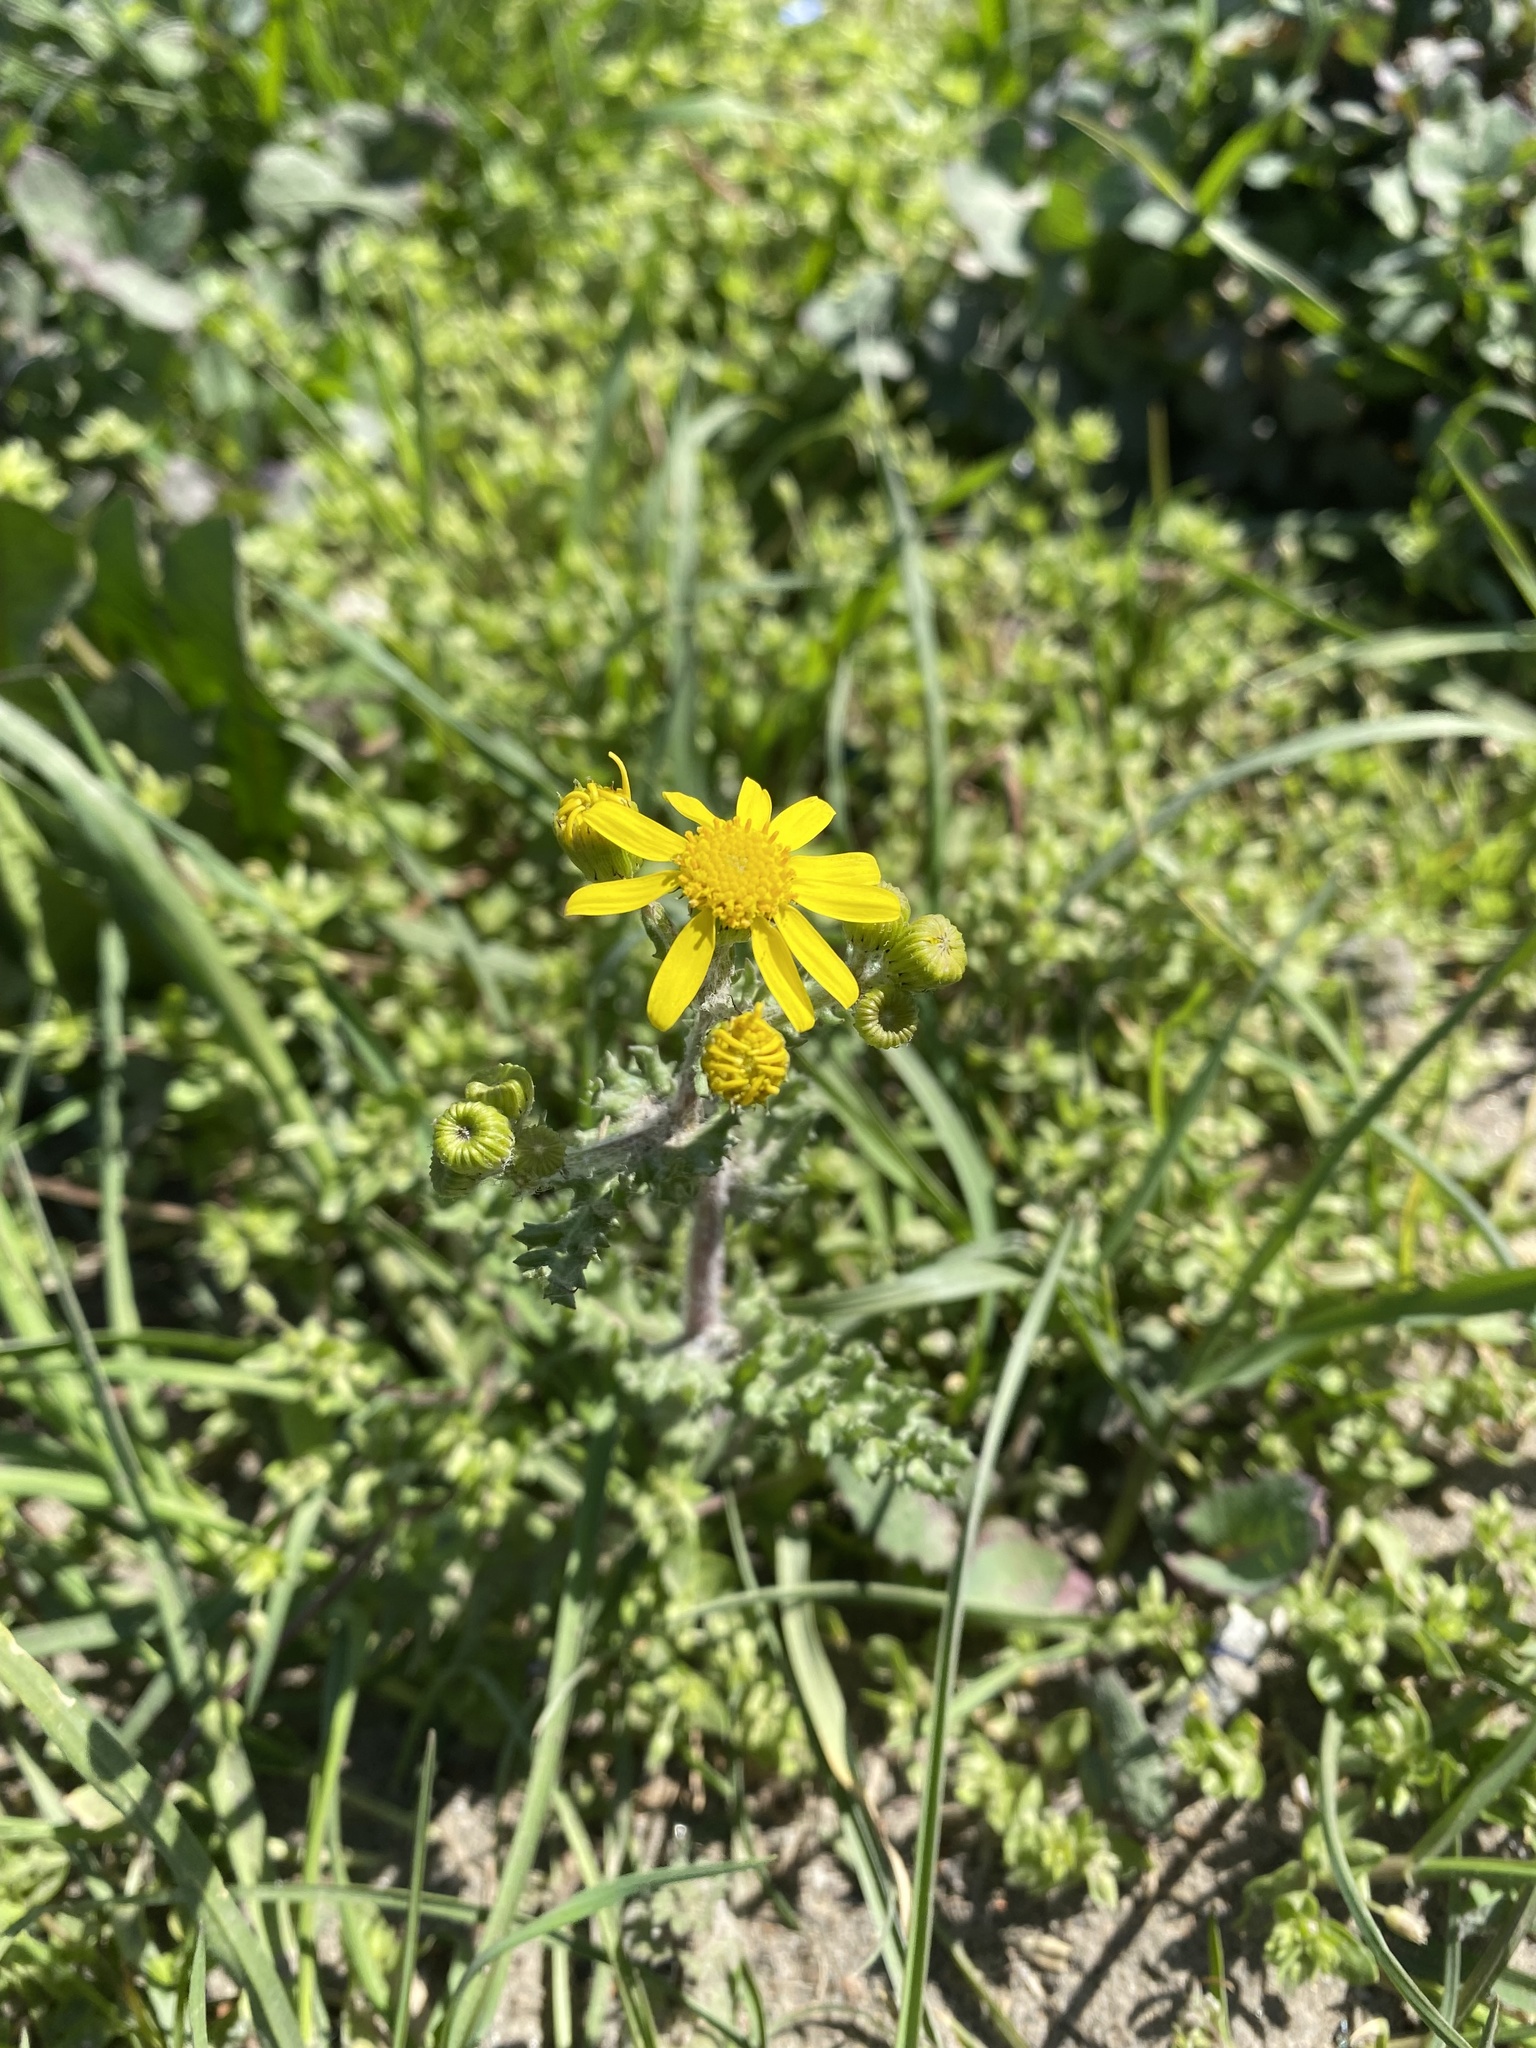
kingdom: Plantae
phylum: Tracheophyta
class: Magnoliopsida
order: Asterales
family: Asteraceae
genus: Senecio
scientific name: Senecio vernalis
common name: Eastern groundsel
